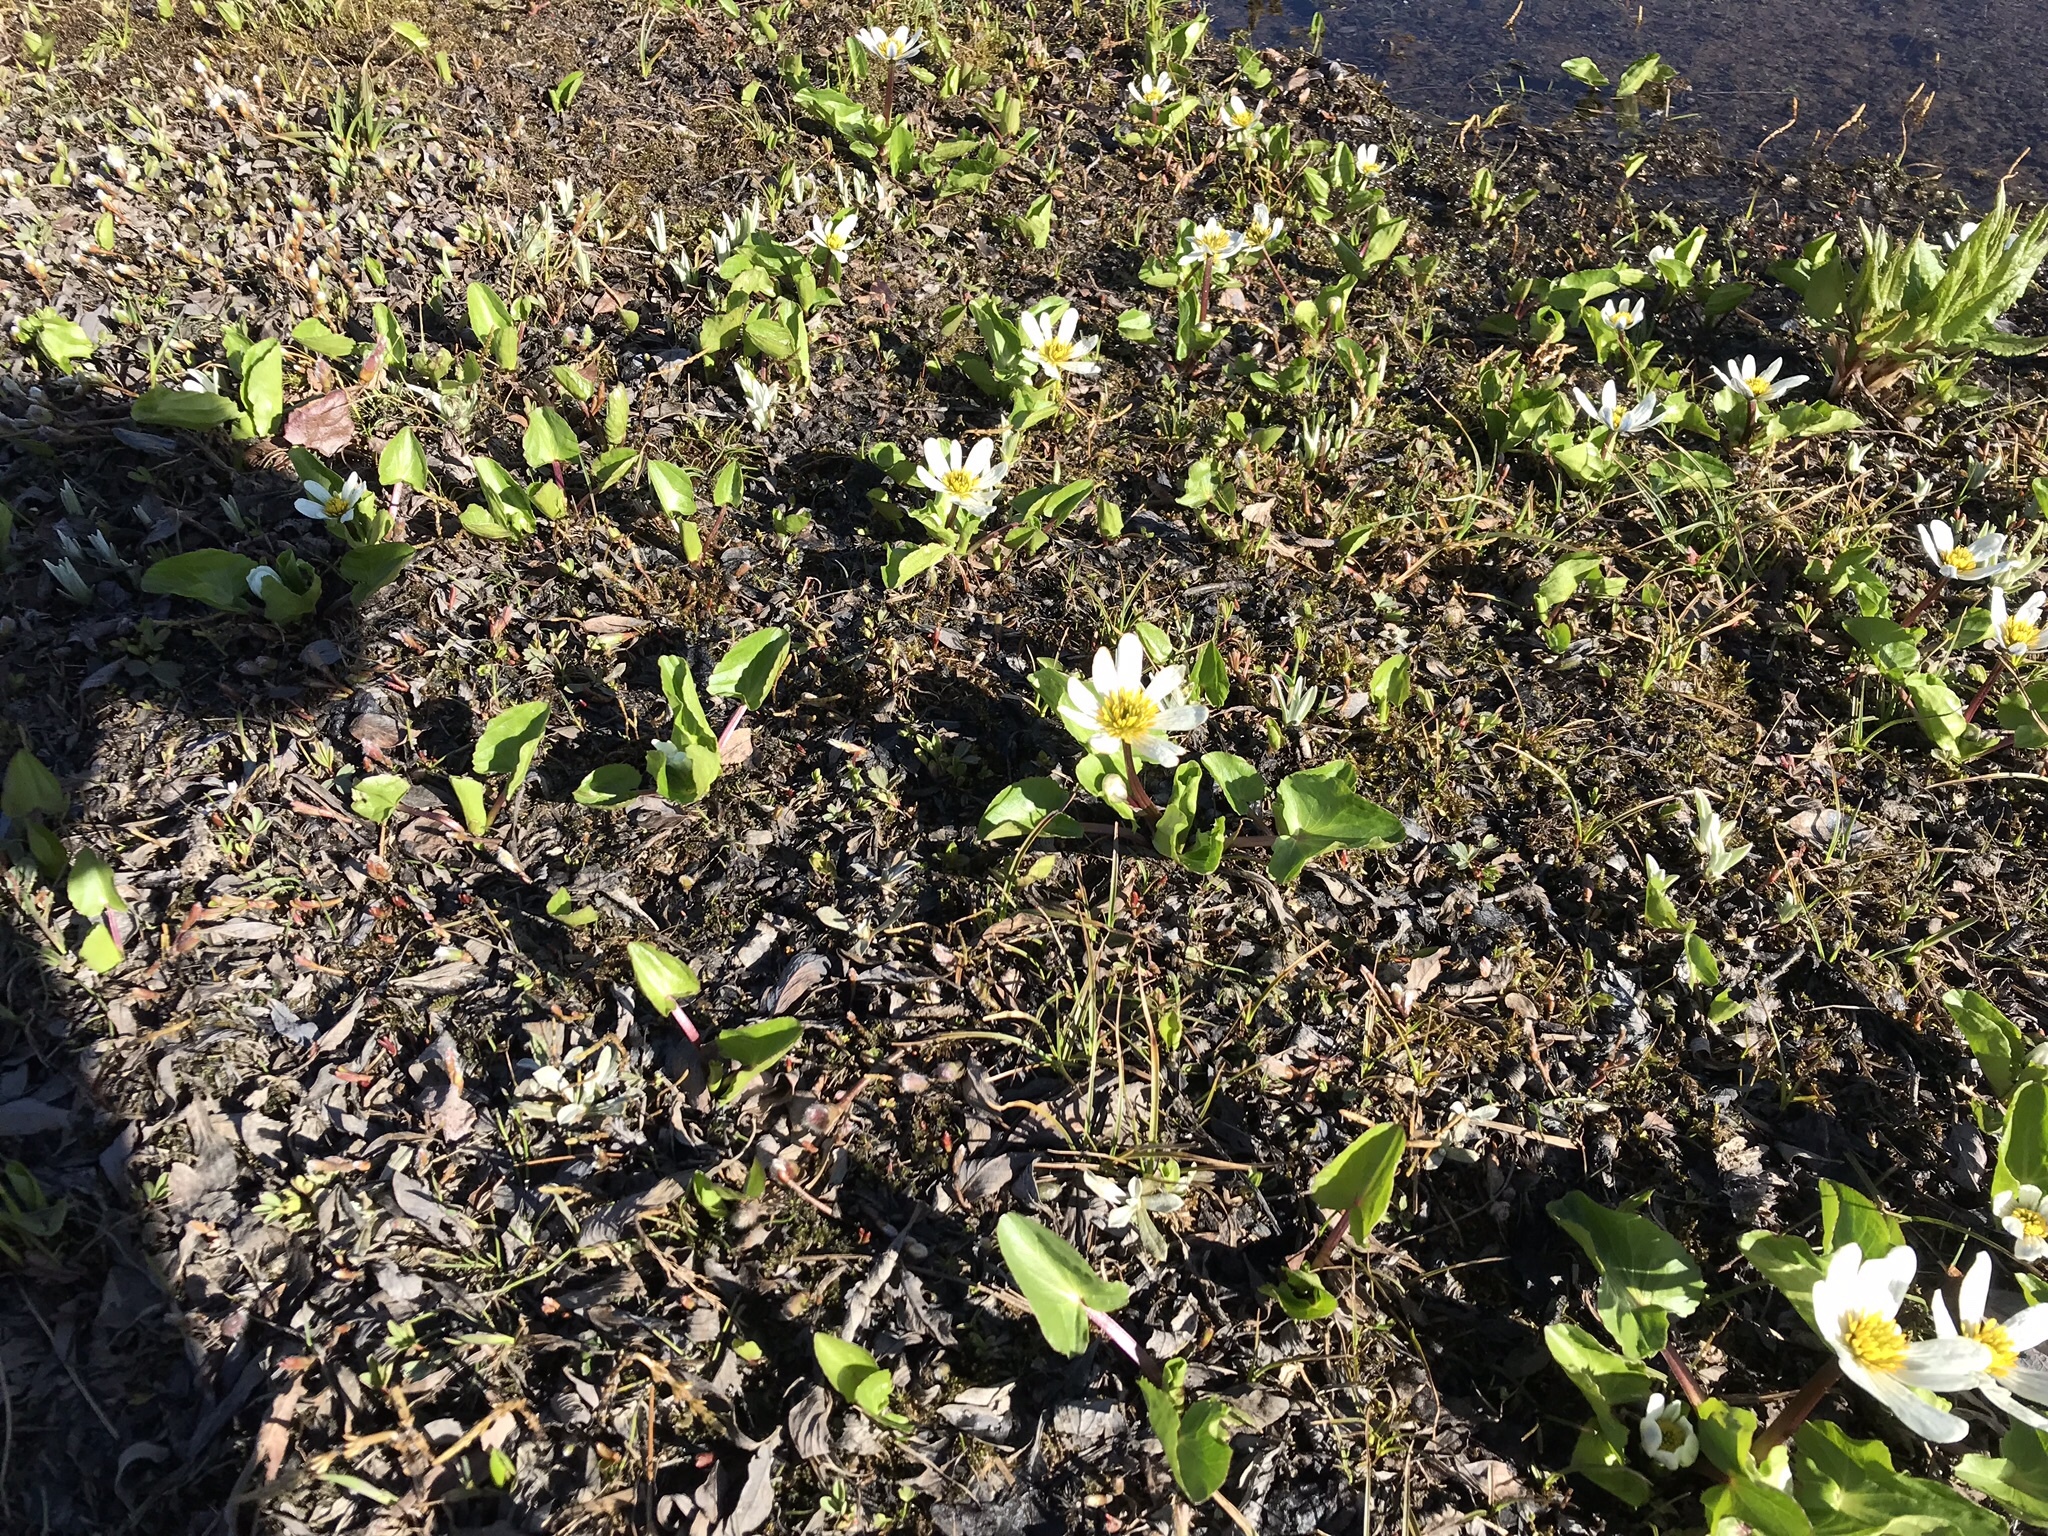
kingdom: Plantae
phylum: Tracheophyta
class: Magnoliopsida
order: Ranunculales
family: Ranunculaceae
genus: Caltha
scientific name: Caltha leptosepala
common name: Elkslip
